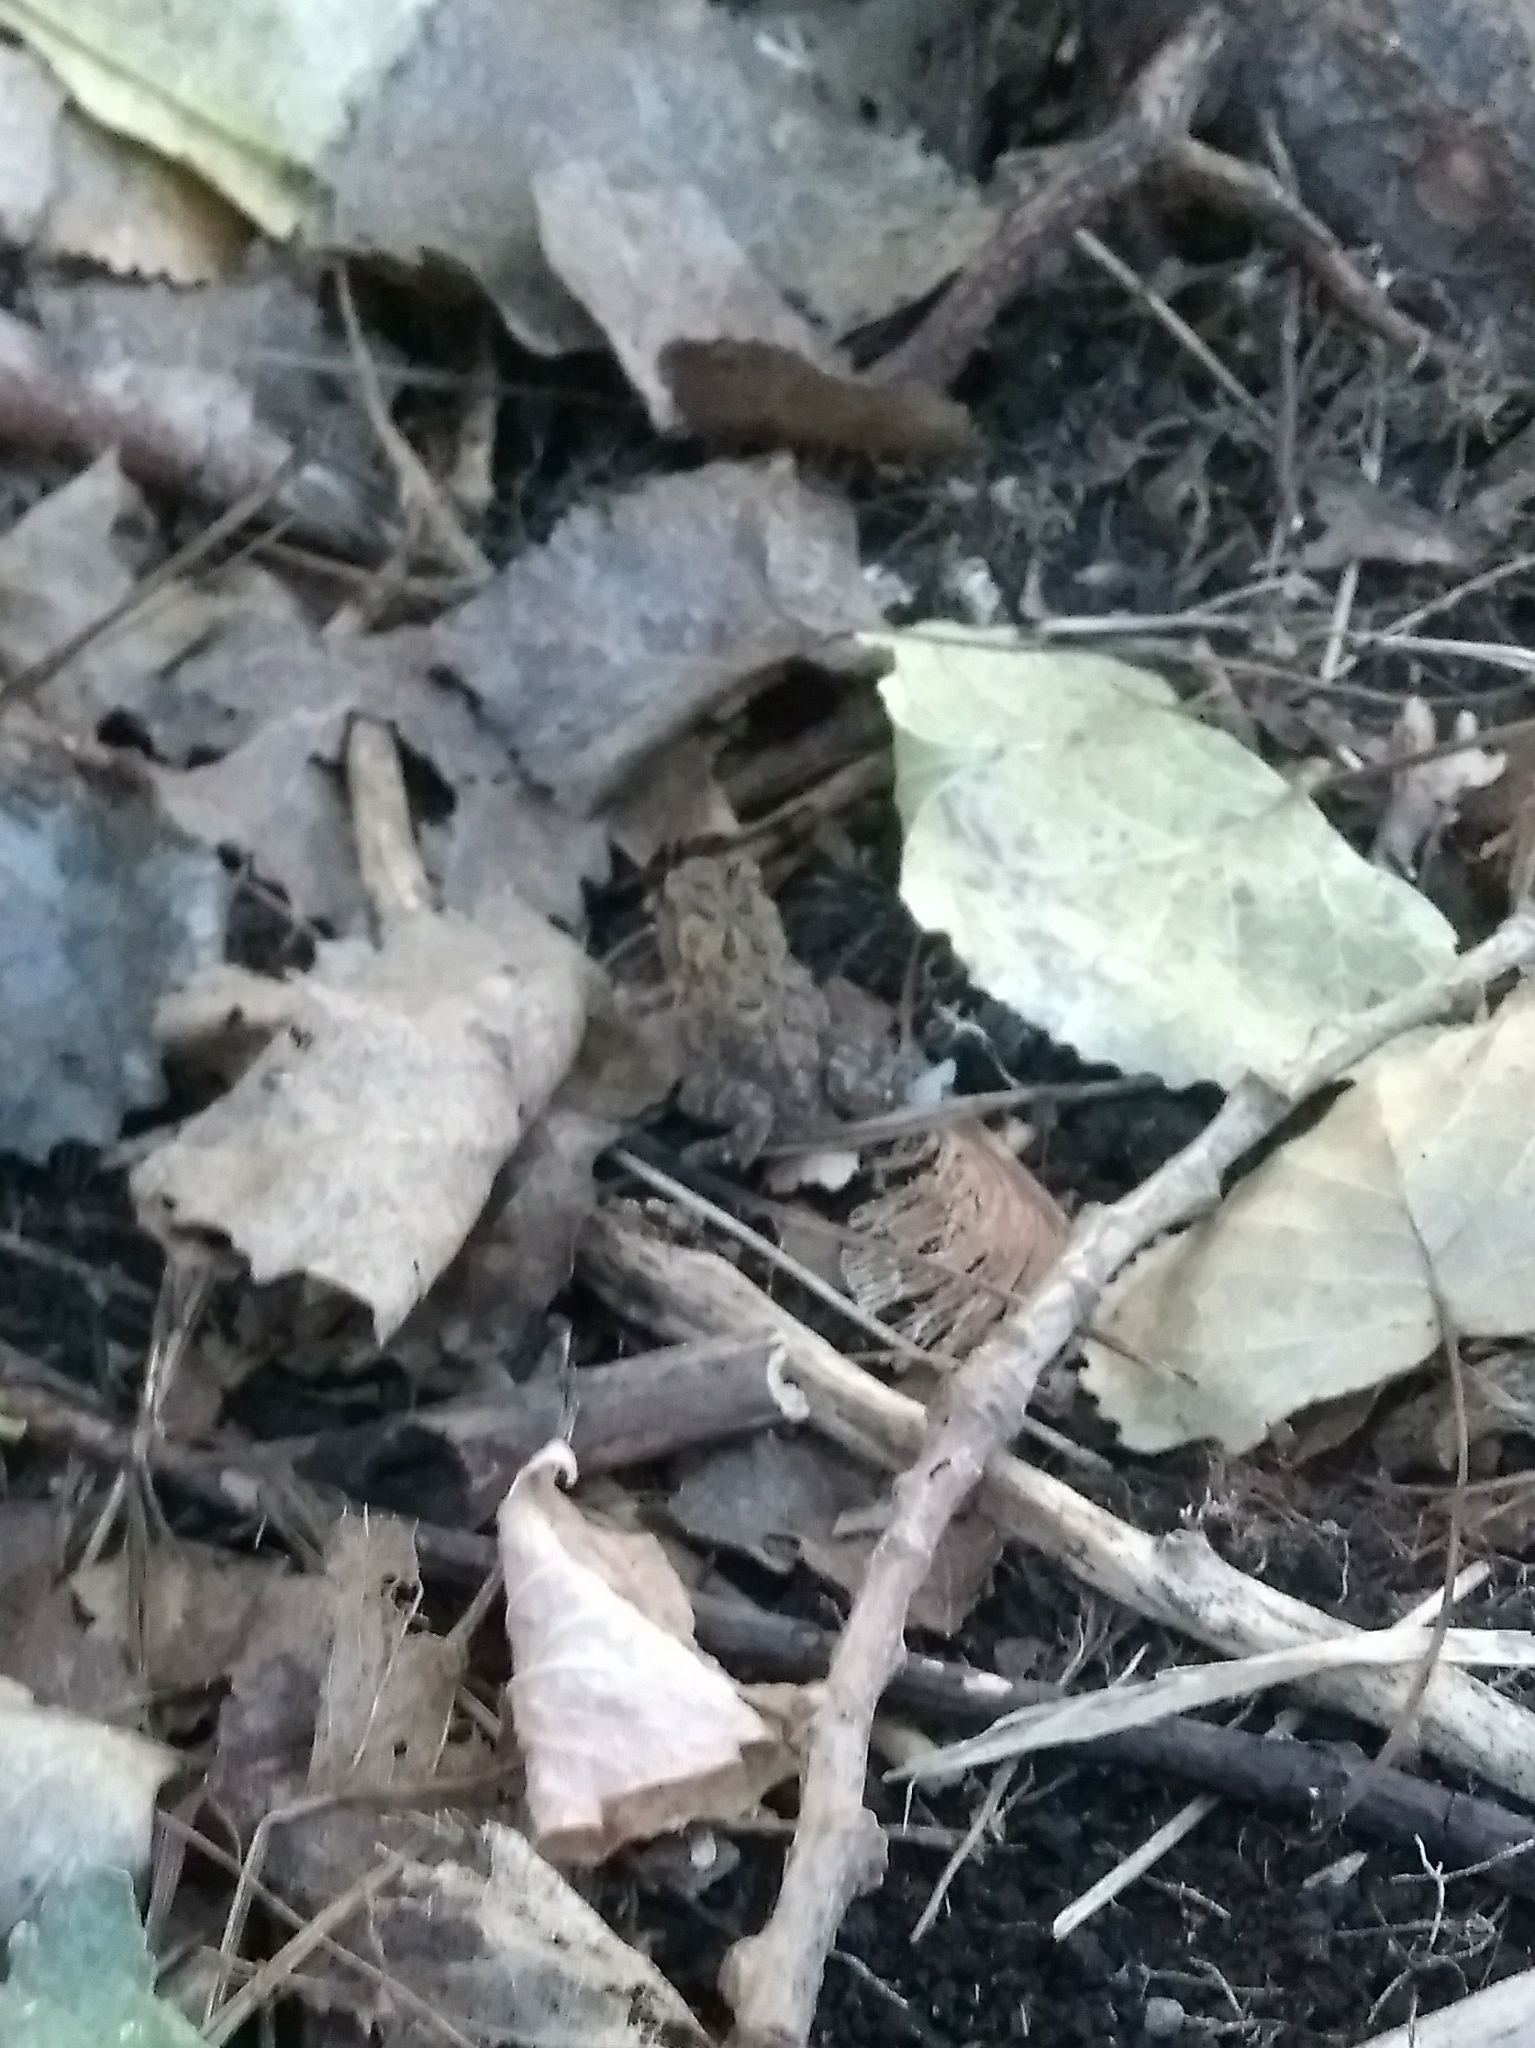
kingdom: Animalia
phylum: Chordata
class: Amphibia
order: Anura
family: Bufonidae
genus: Anaxyrus
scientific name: Anaxyrus americanus
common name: American toad
